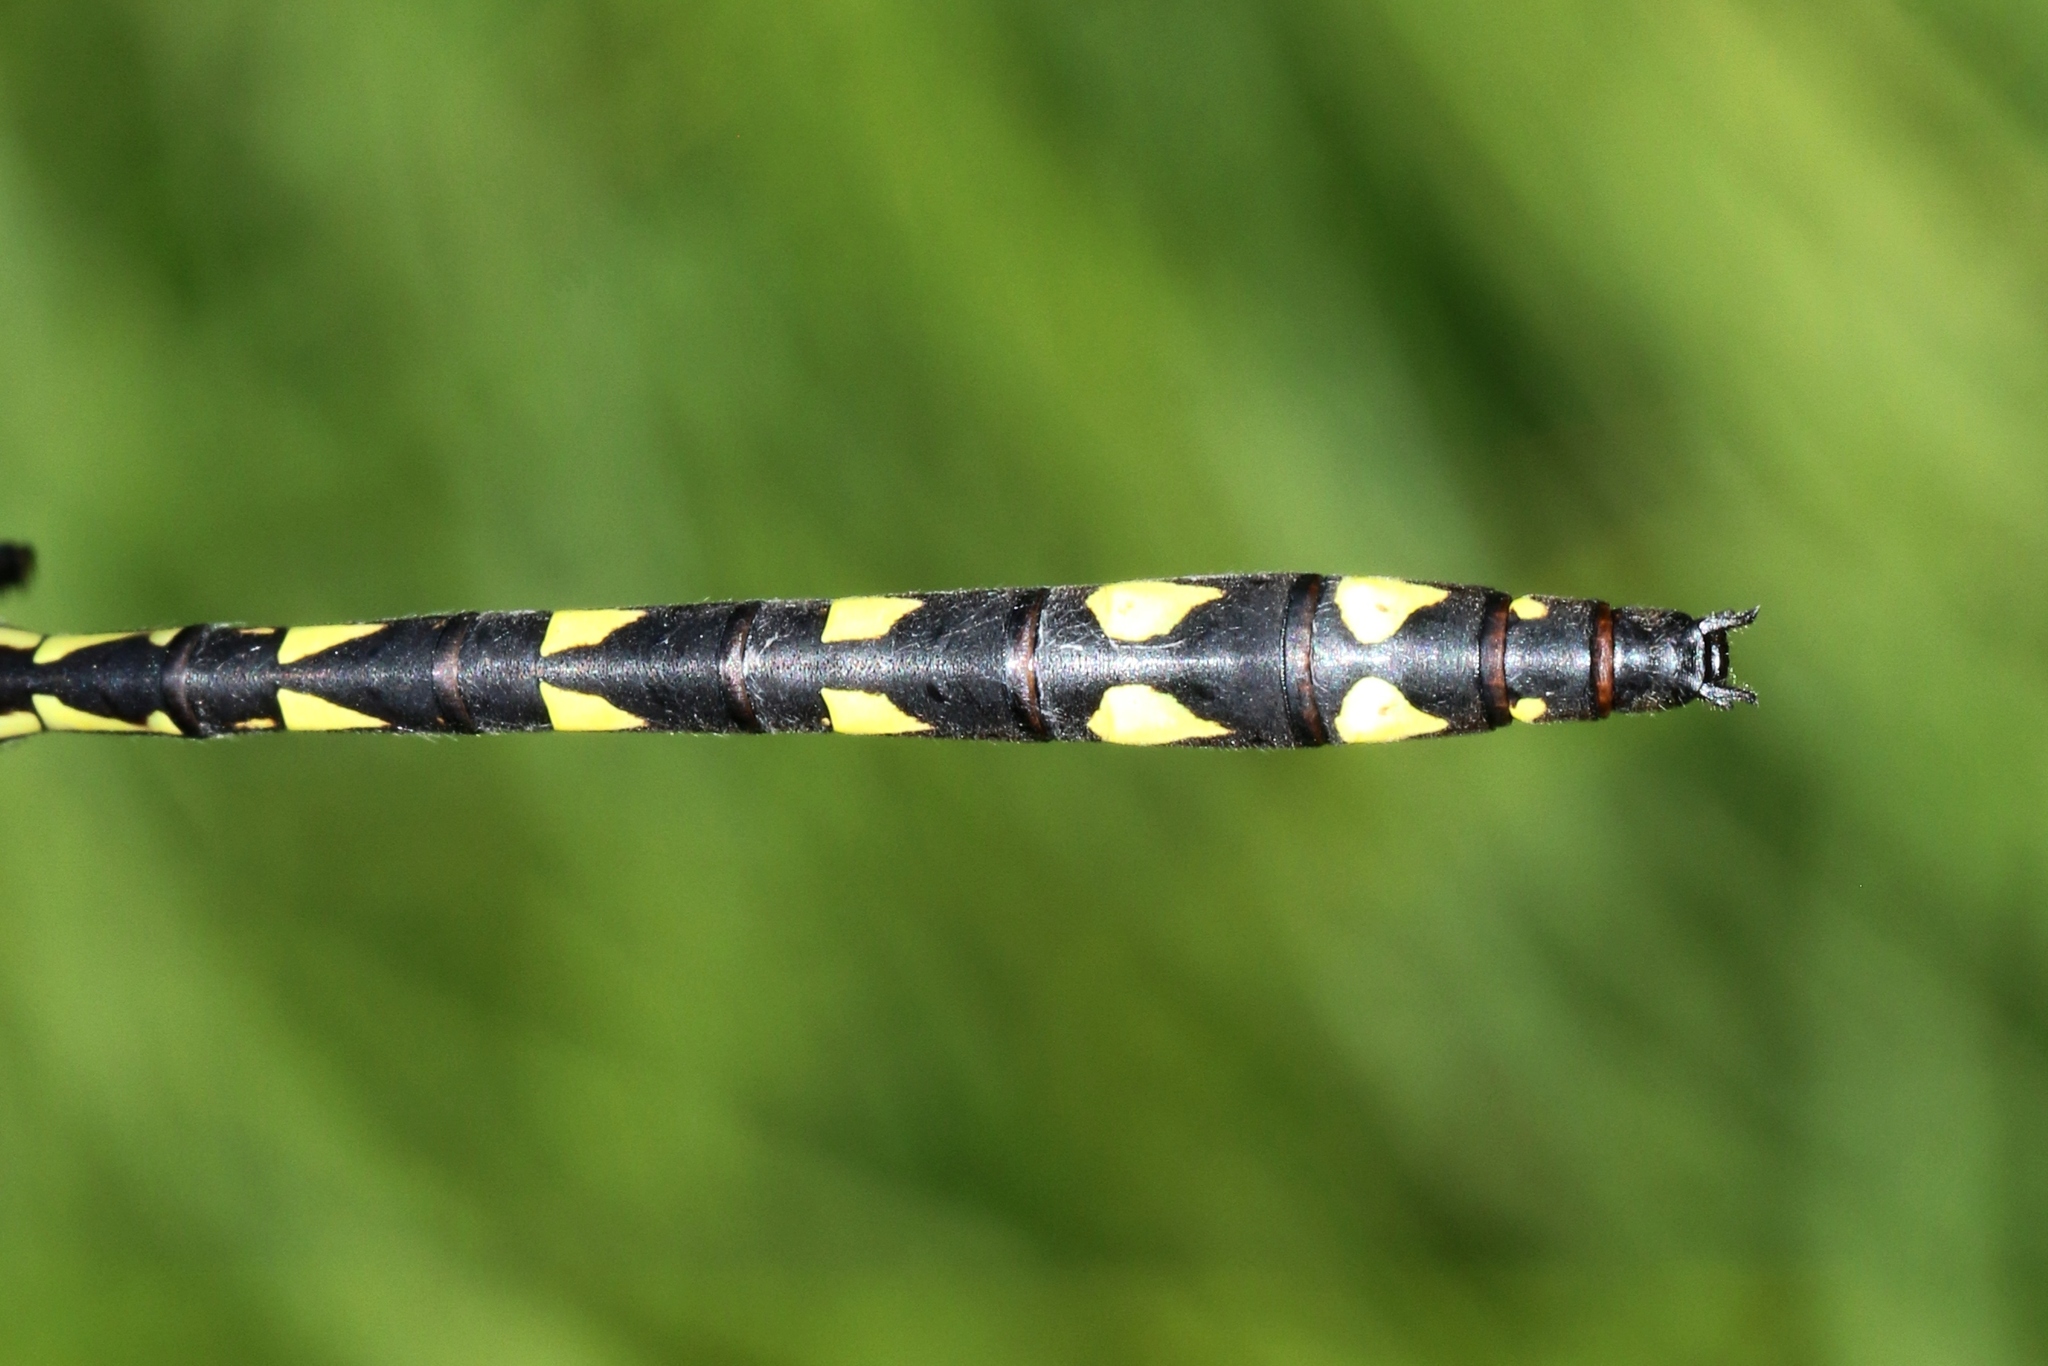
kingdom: Animalia
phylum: Arthropoda
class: Insecta
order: Odonata
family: Cordulegastridae
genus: Cordulegaster
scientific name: Cordulegaster diastatops
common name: Delta-spotted spiketail
